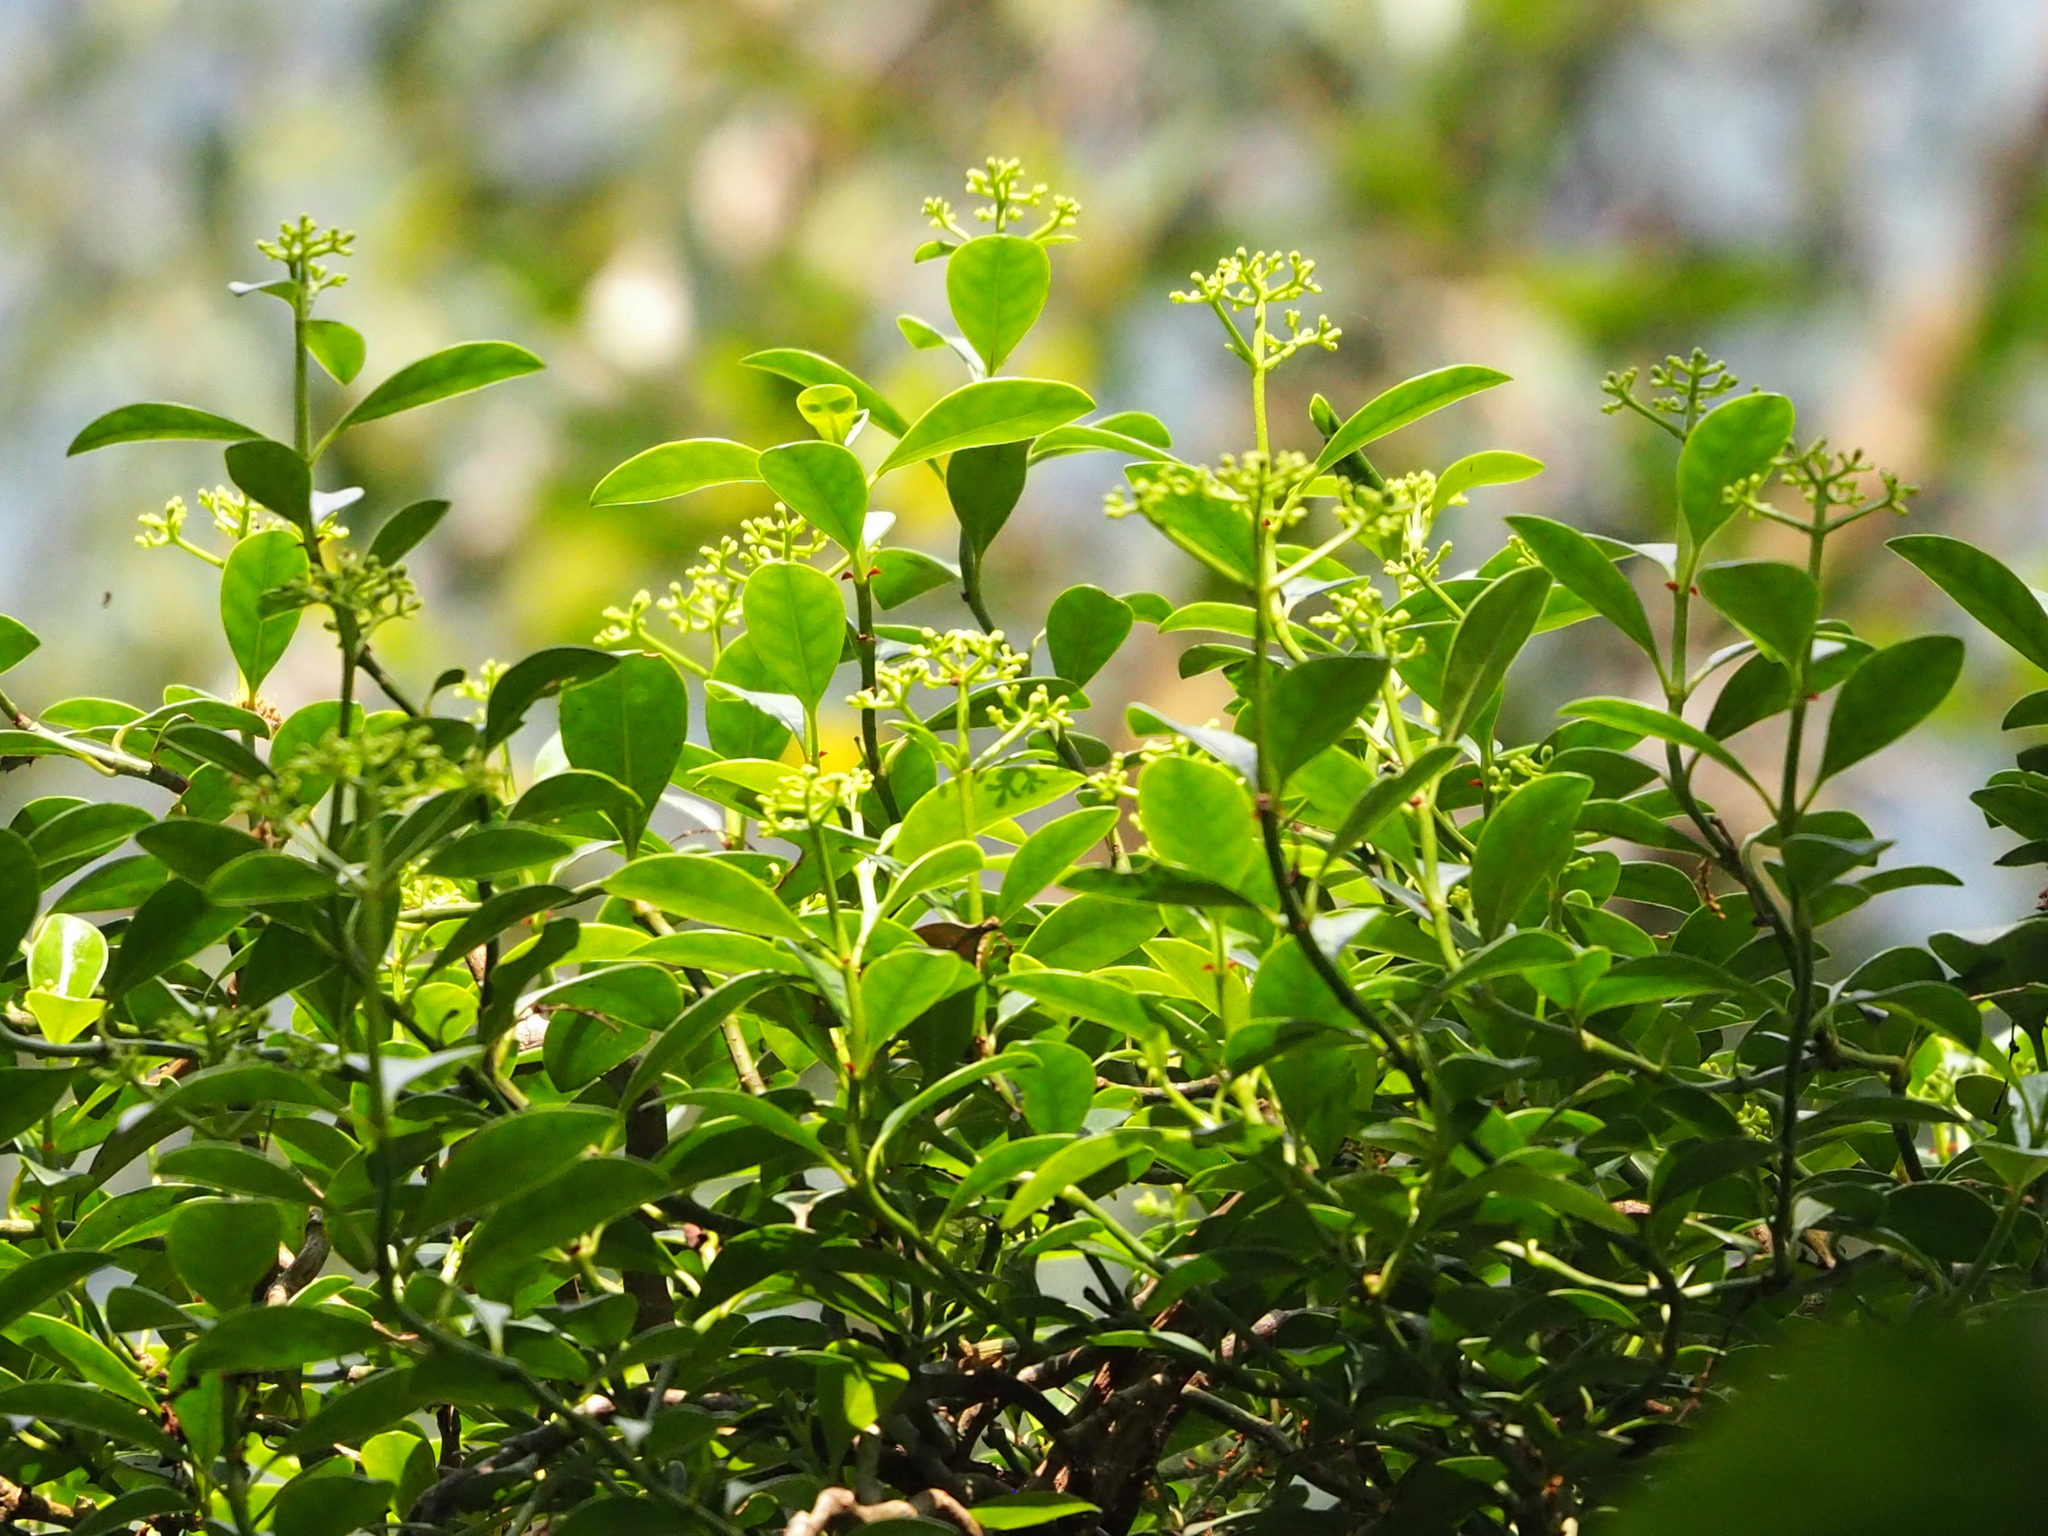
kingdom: Plantae
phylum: Tracheophyta
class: Magnoliopsida
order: Gentianales
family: Rubiaceae
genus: Psychotria
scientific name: Psychotria serpens
